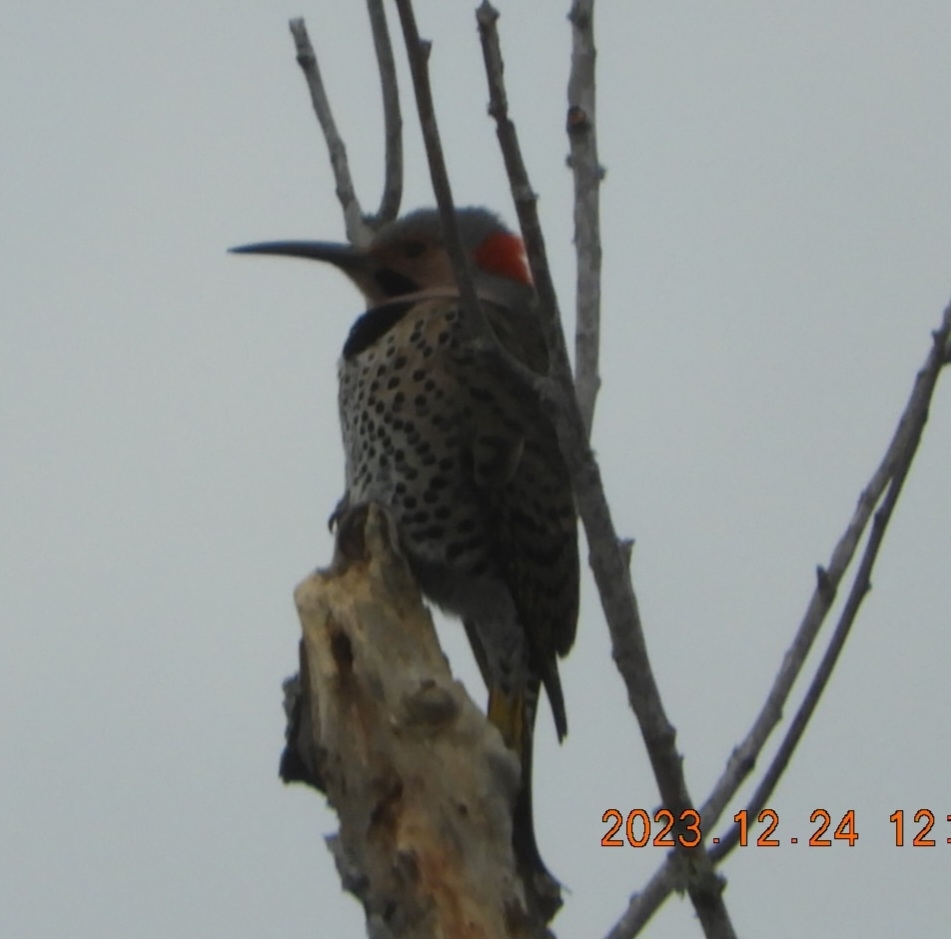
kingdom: Animalia
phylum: Chordata
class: Aves
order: Piciformes
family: Picidae
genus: Colaptes
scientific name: Colaptes auratus
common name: Northern flicker
